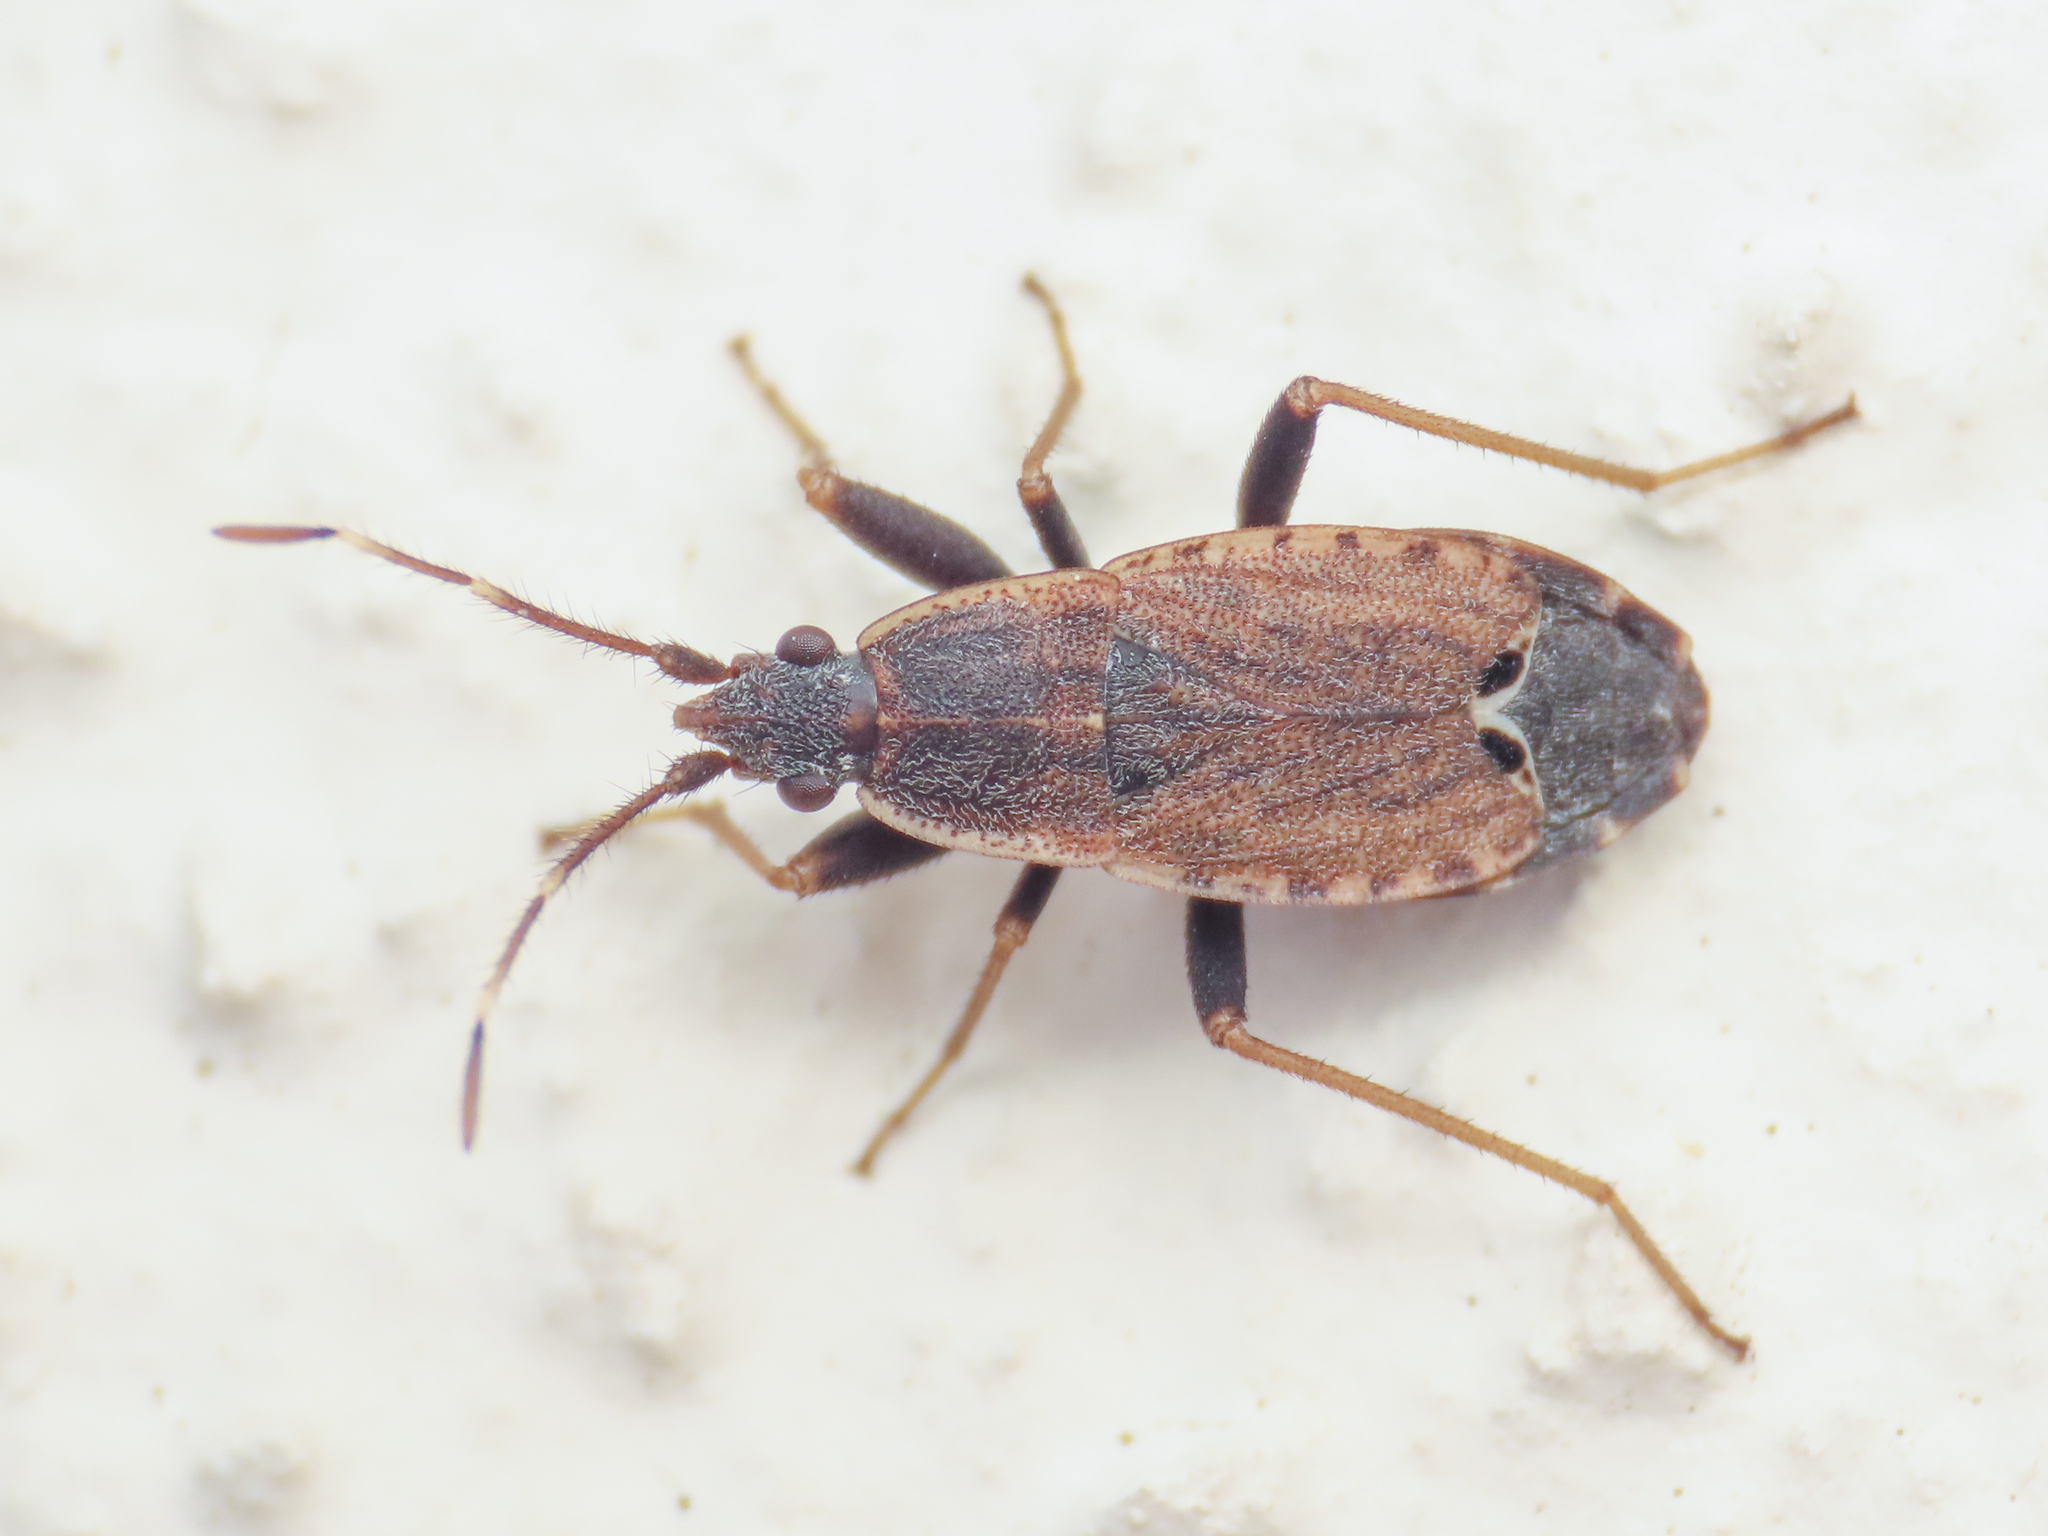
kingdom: Animalia
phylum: Arthropoda
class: Insecta
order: Hemiptera
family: Rhyparochromidae
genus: Ischnopeza
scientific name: Ischnopeza hirticornis
